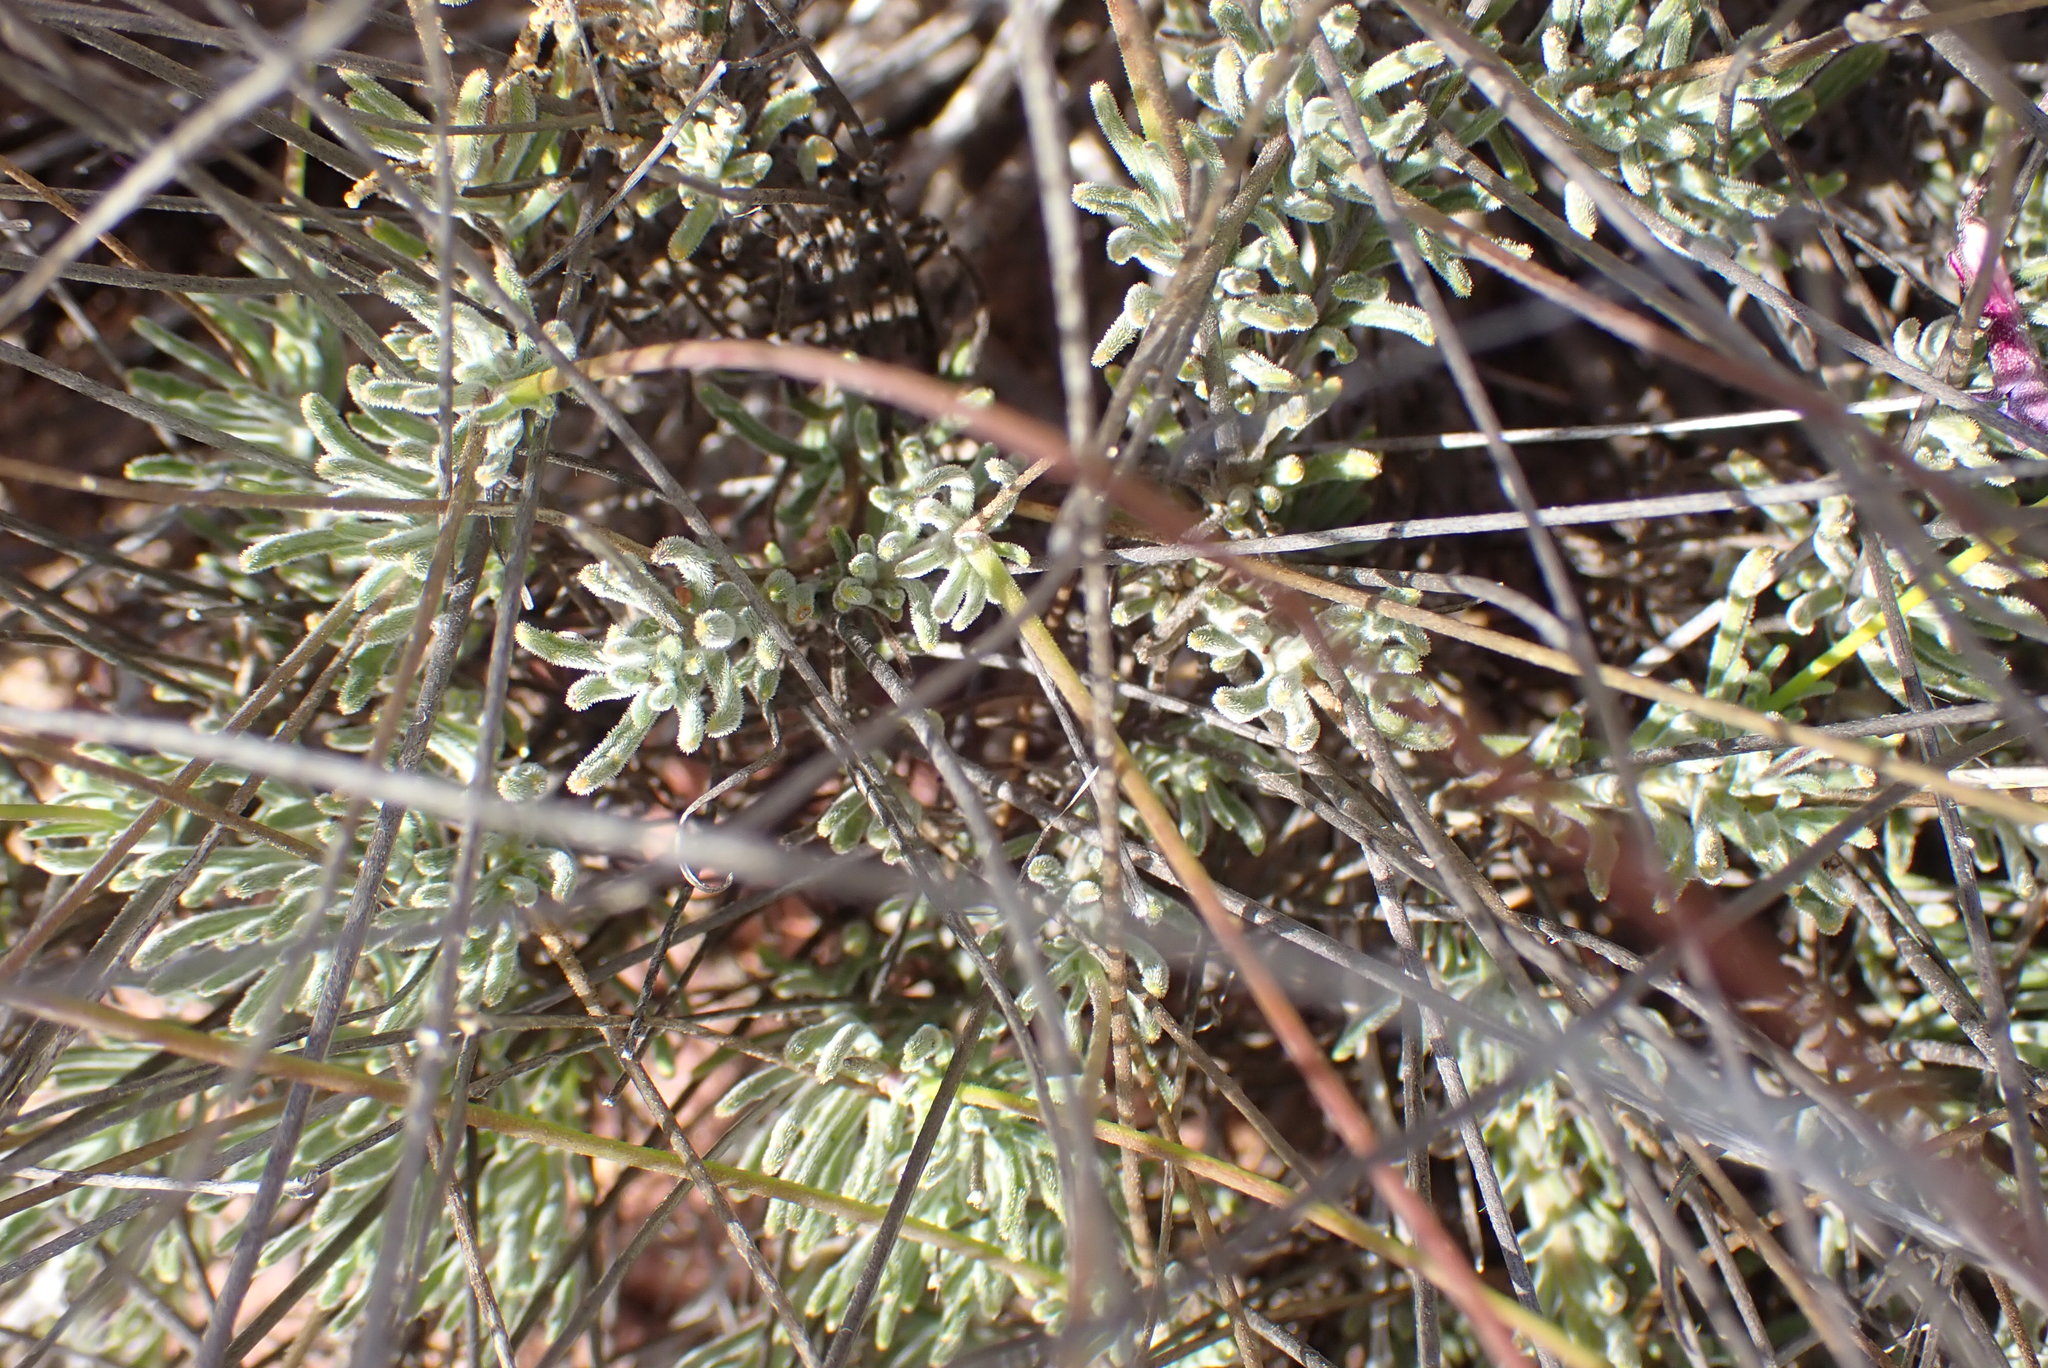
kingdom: Plantae
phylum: Tracheophyta
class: Magnoliopsida
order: Asterales
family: Campanulaceae
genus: Lobelia
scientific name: Lobelia tomentosa
